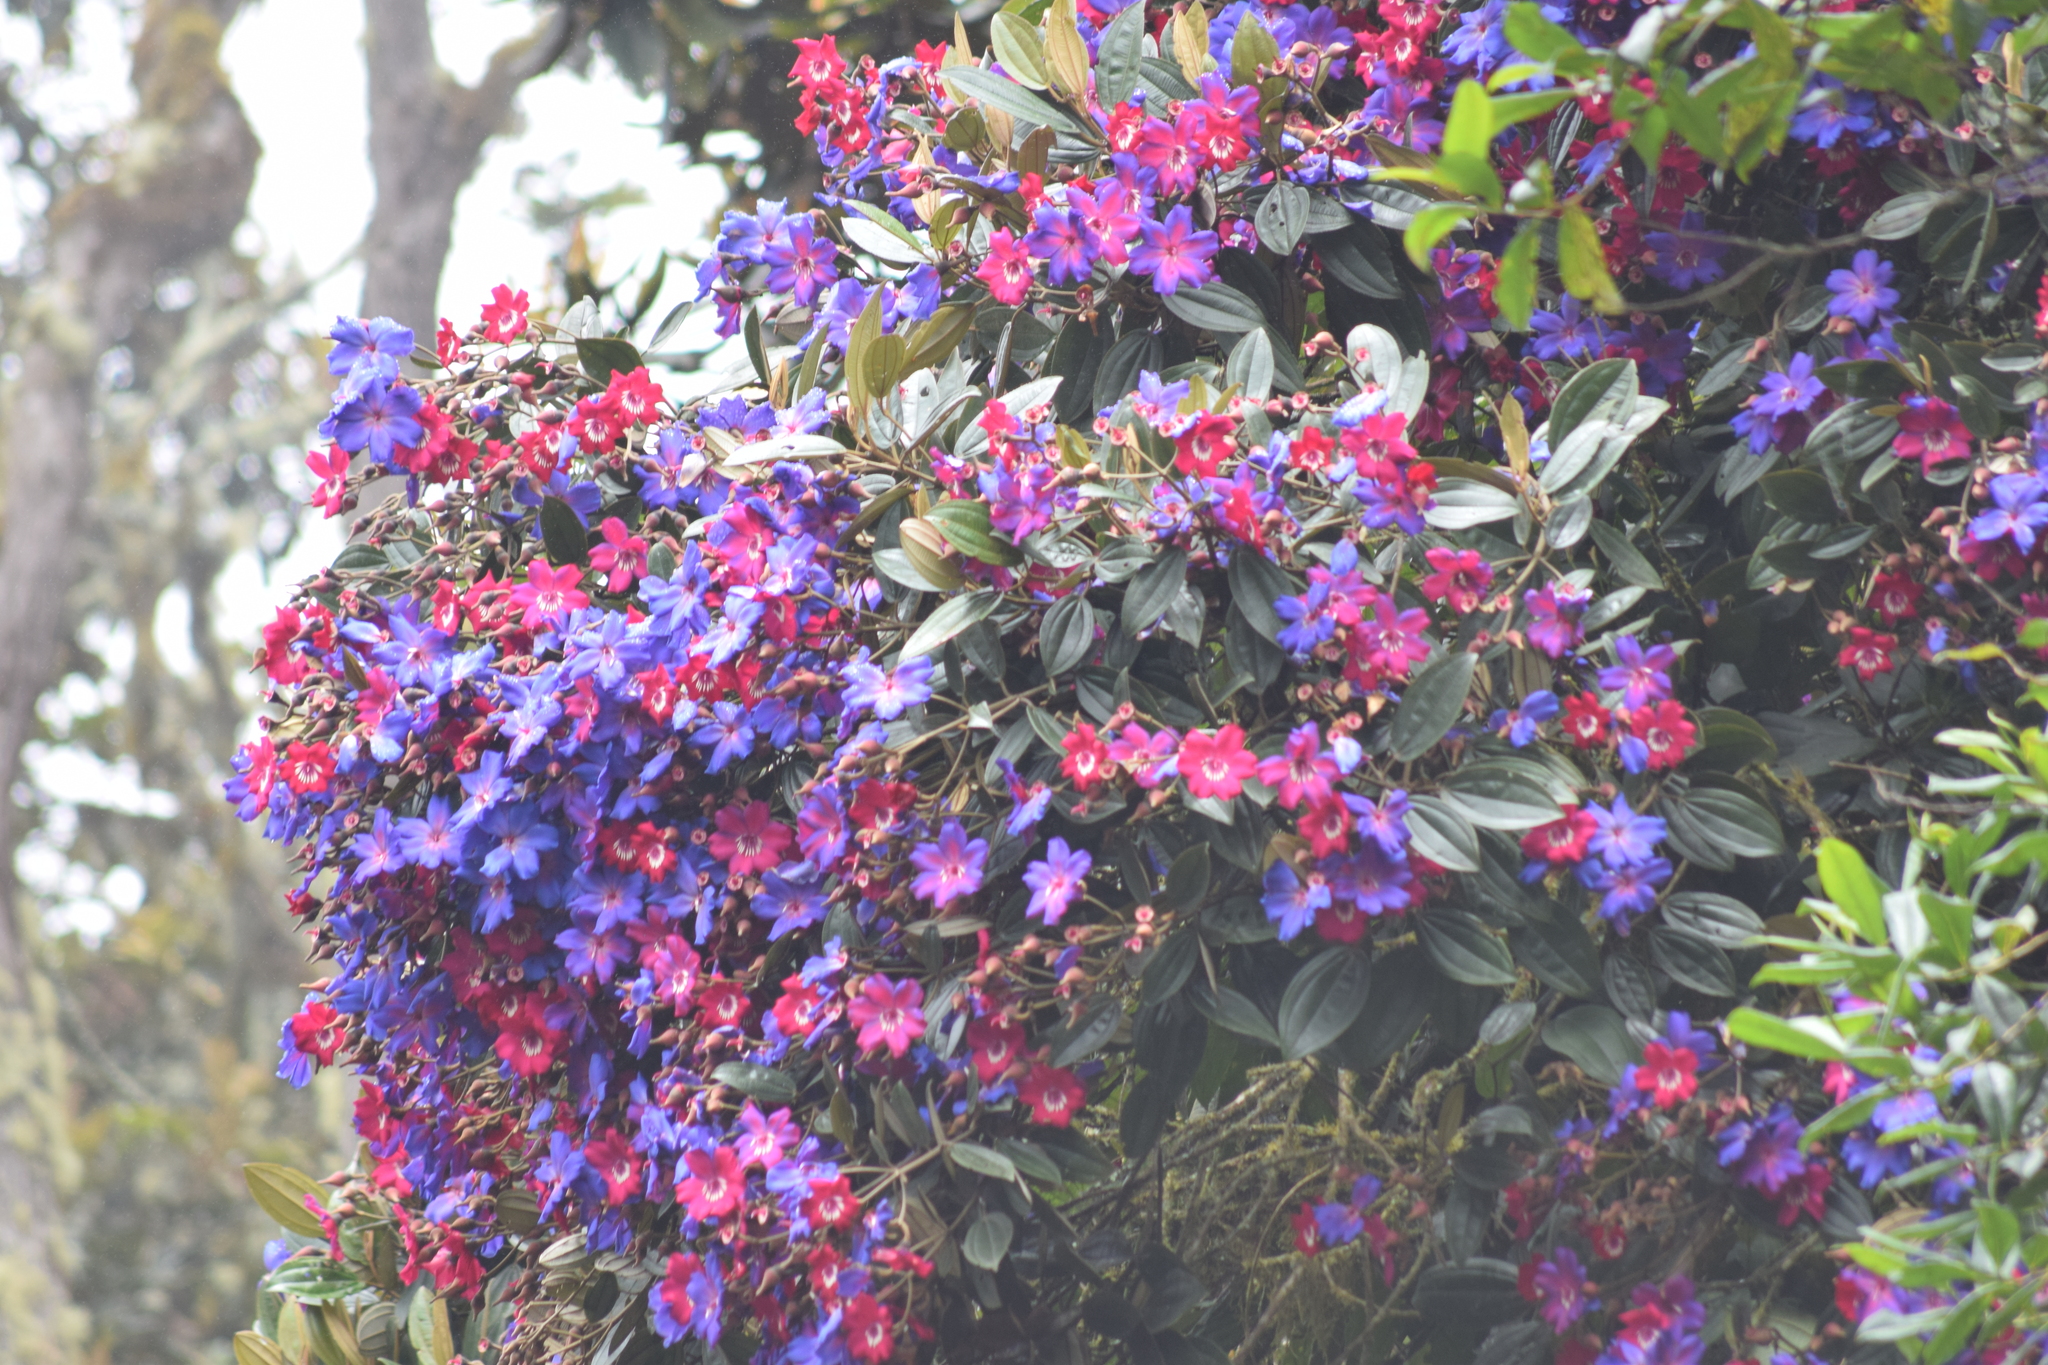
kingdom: Plantae
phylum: Tracheophyta
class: Magnoliopsida
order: Myrtales
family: Melastomataceae
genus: Meriania
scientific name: Meriania brachycera
